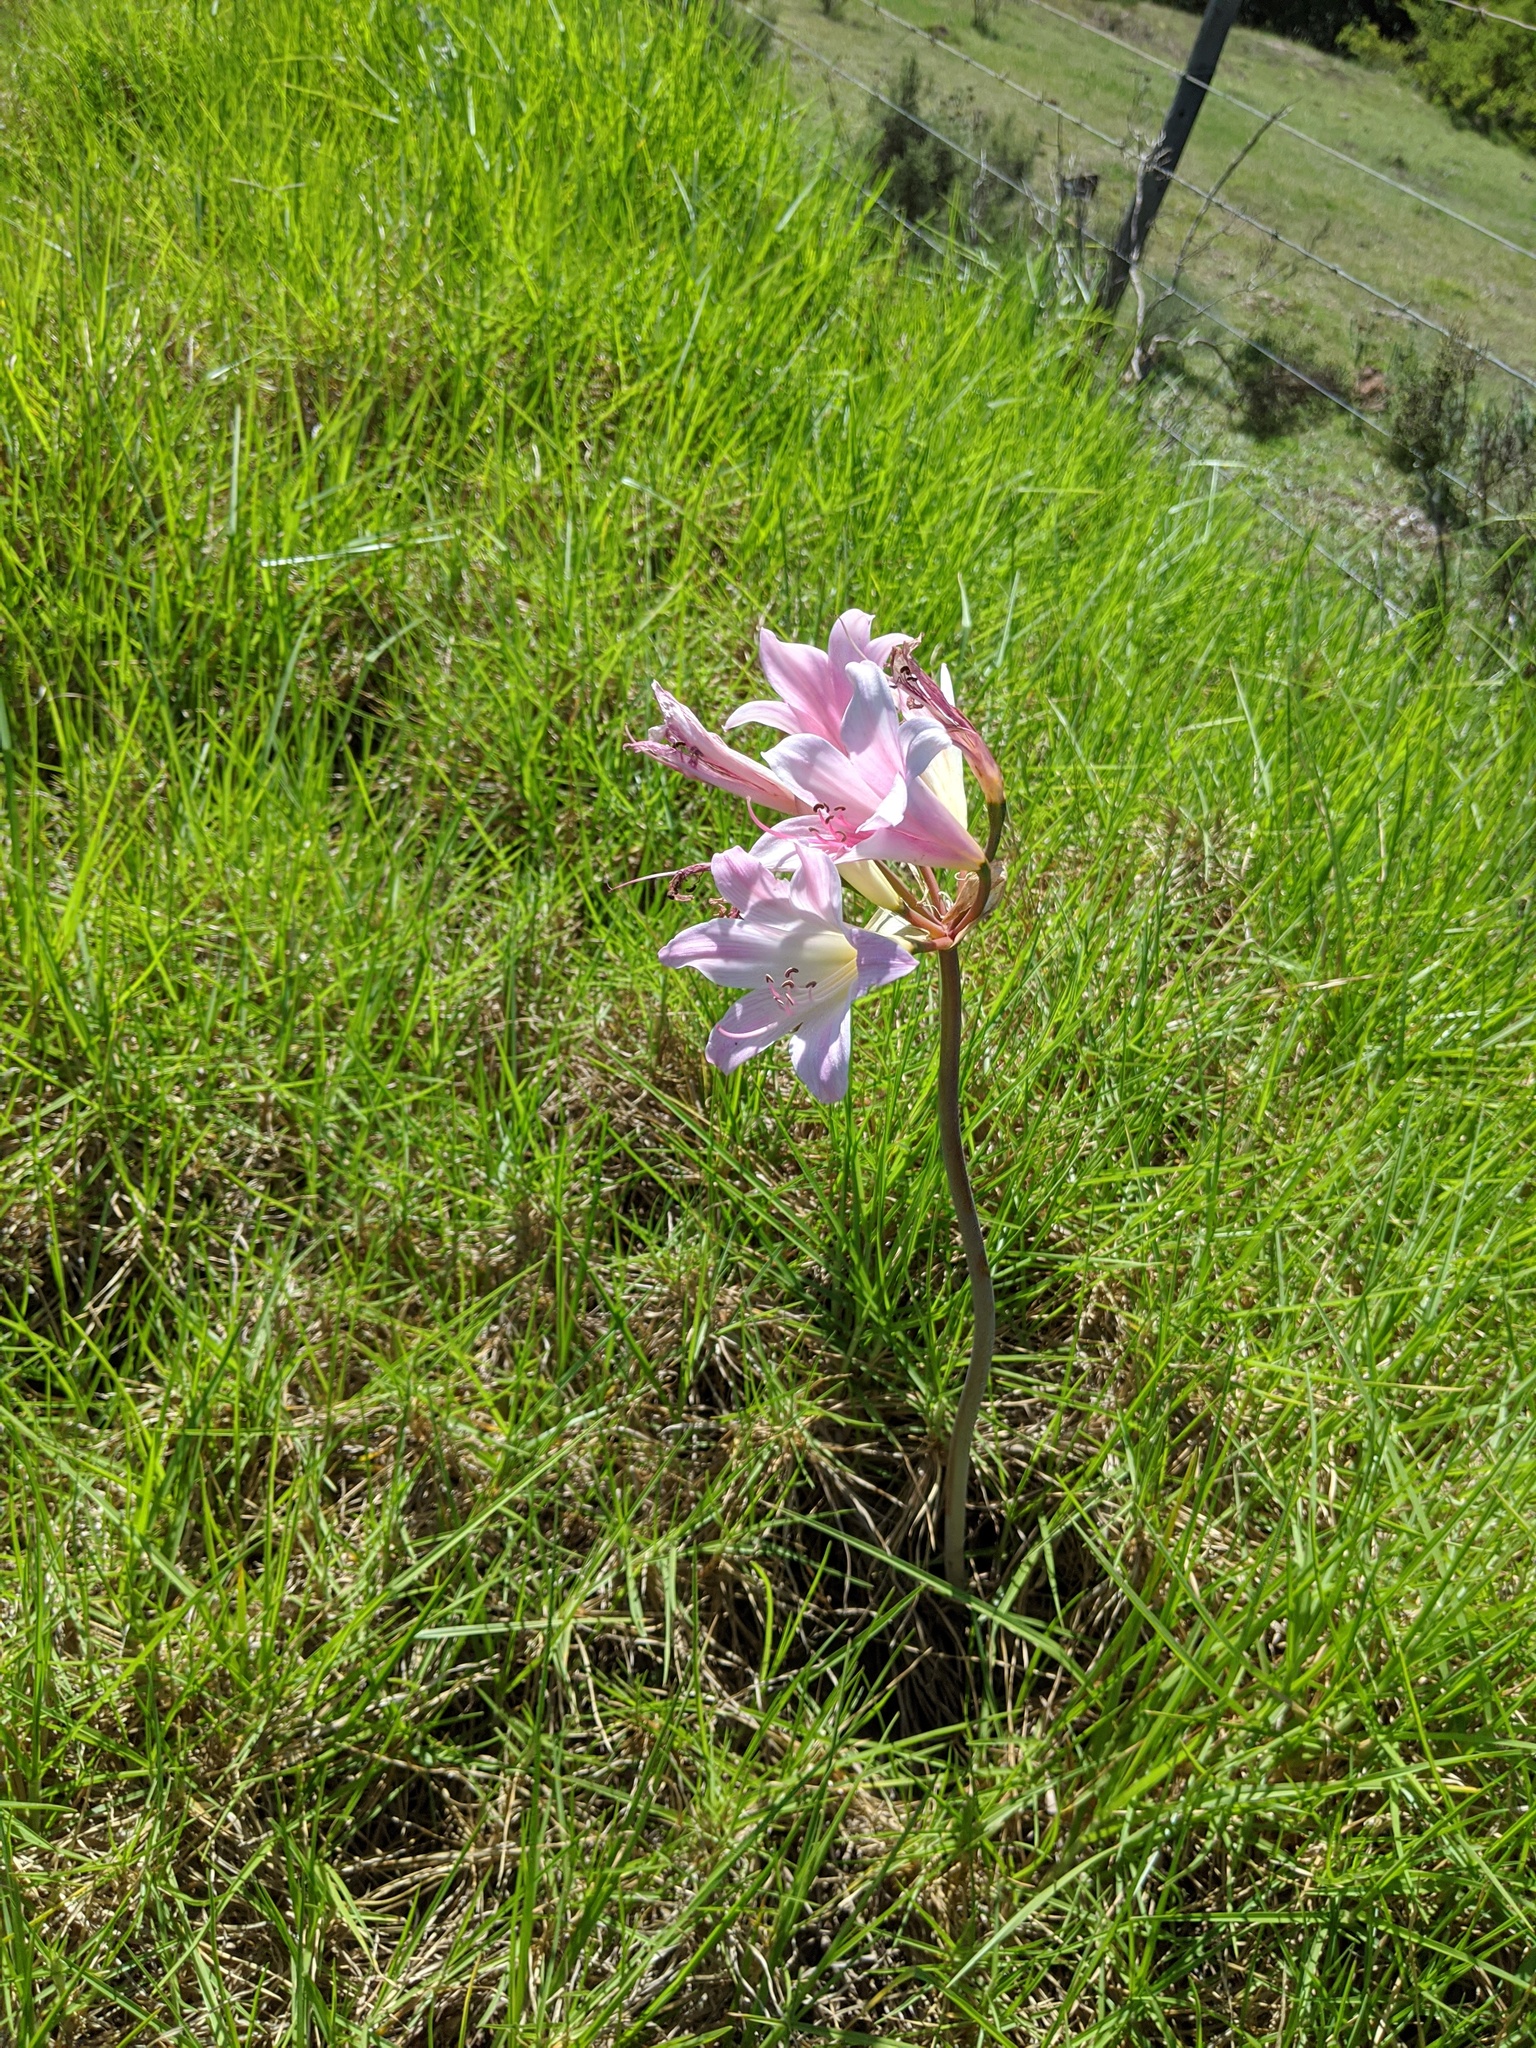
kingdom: Plantae
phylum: Tracheophyta
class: Liliopsida
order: Asparagales
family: Amaryllidaceae
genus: Amaryllis
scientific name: Amaryllis belladonna
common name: Jersey lily
